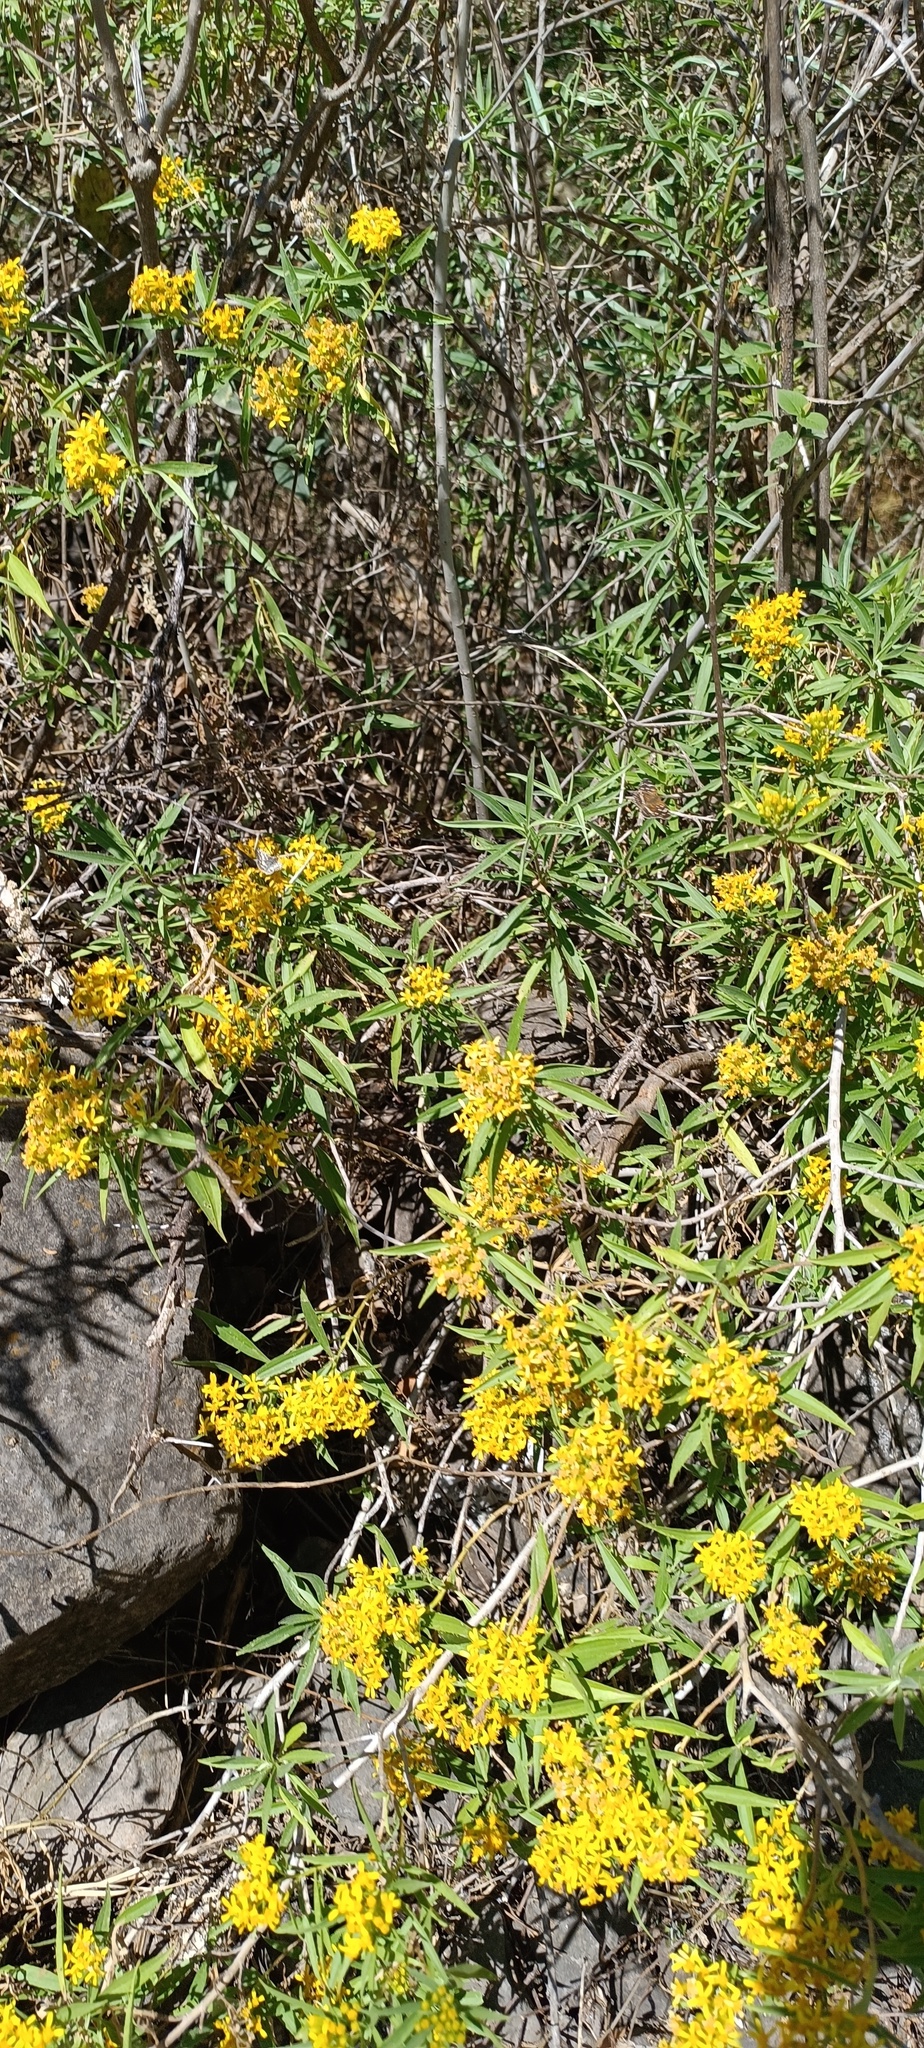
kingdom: Plantae
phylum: Tracheophyta
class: Magnoliopsida
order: Asterales
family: Asteraceae
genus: Barkleyanthus
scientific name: Barkleyanthus salicifolius
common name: Willow ragwort
